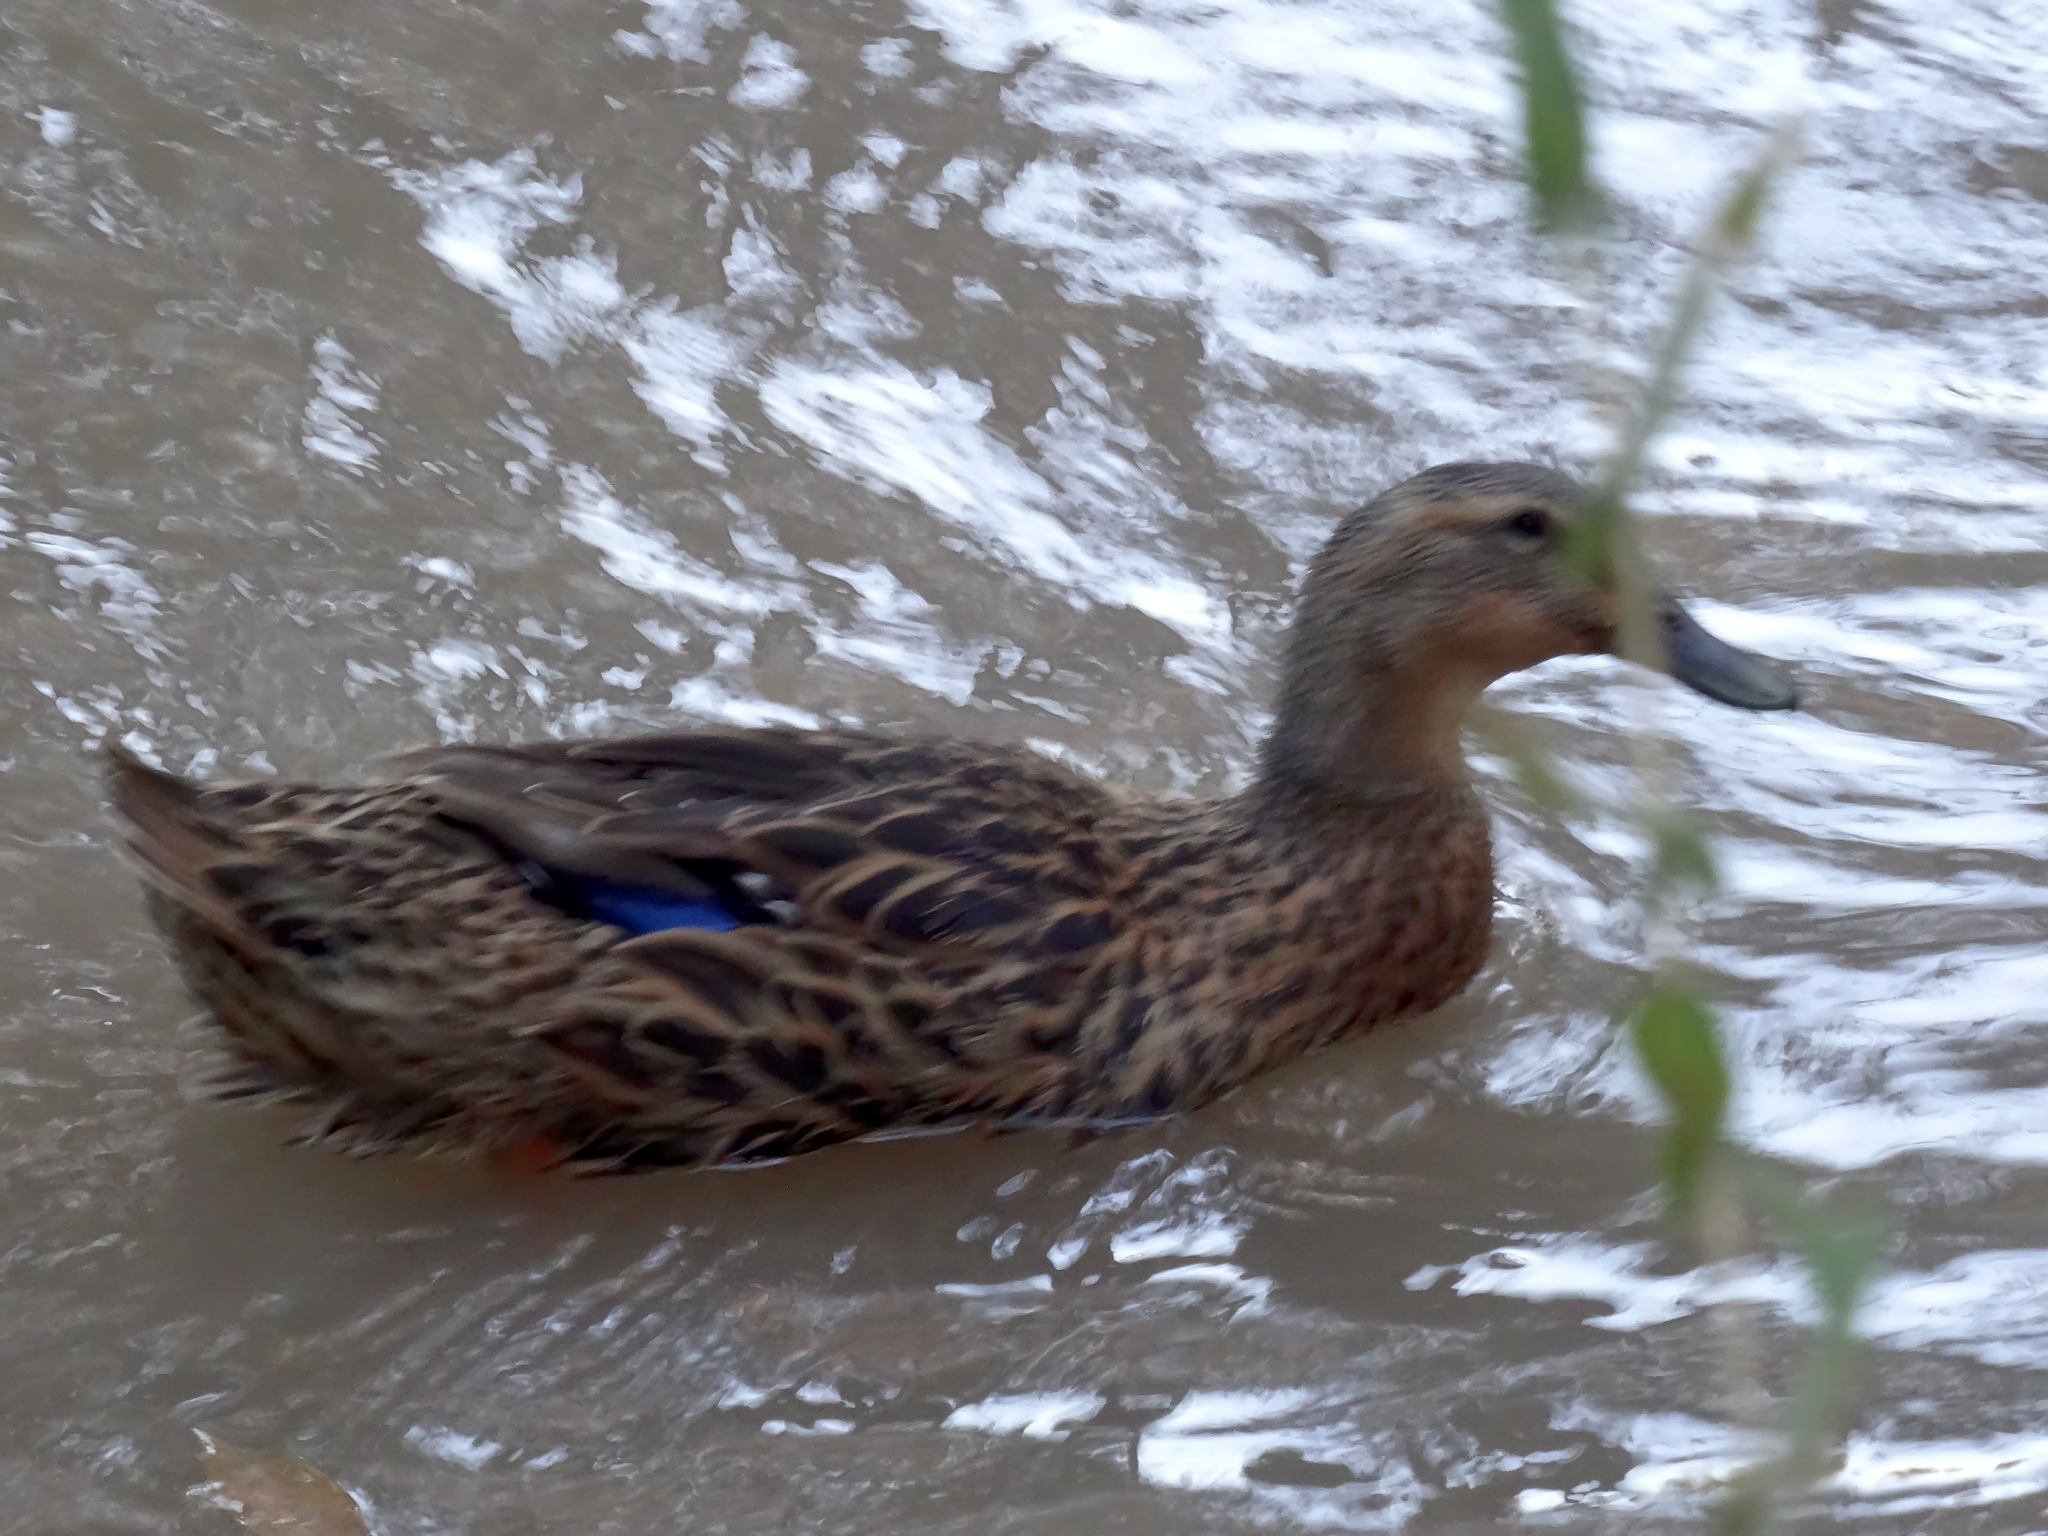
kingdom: Animalia
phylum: Chordata
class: Aves
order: Anseriformes
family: Anatidae
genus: Anas
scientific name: Anas platyrhynchos
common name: Mallard
